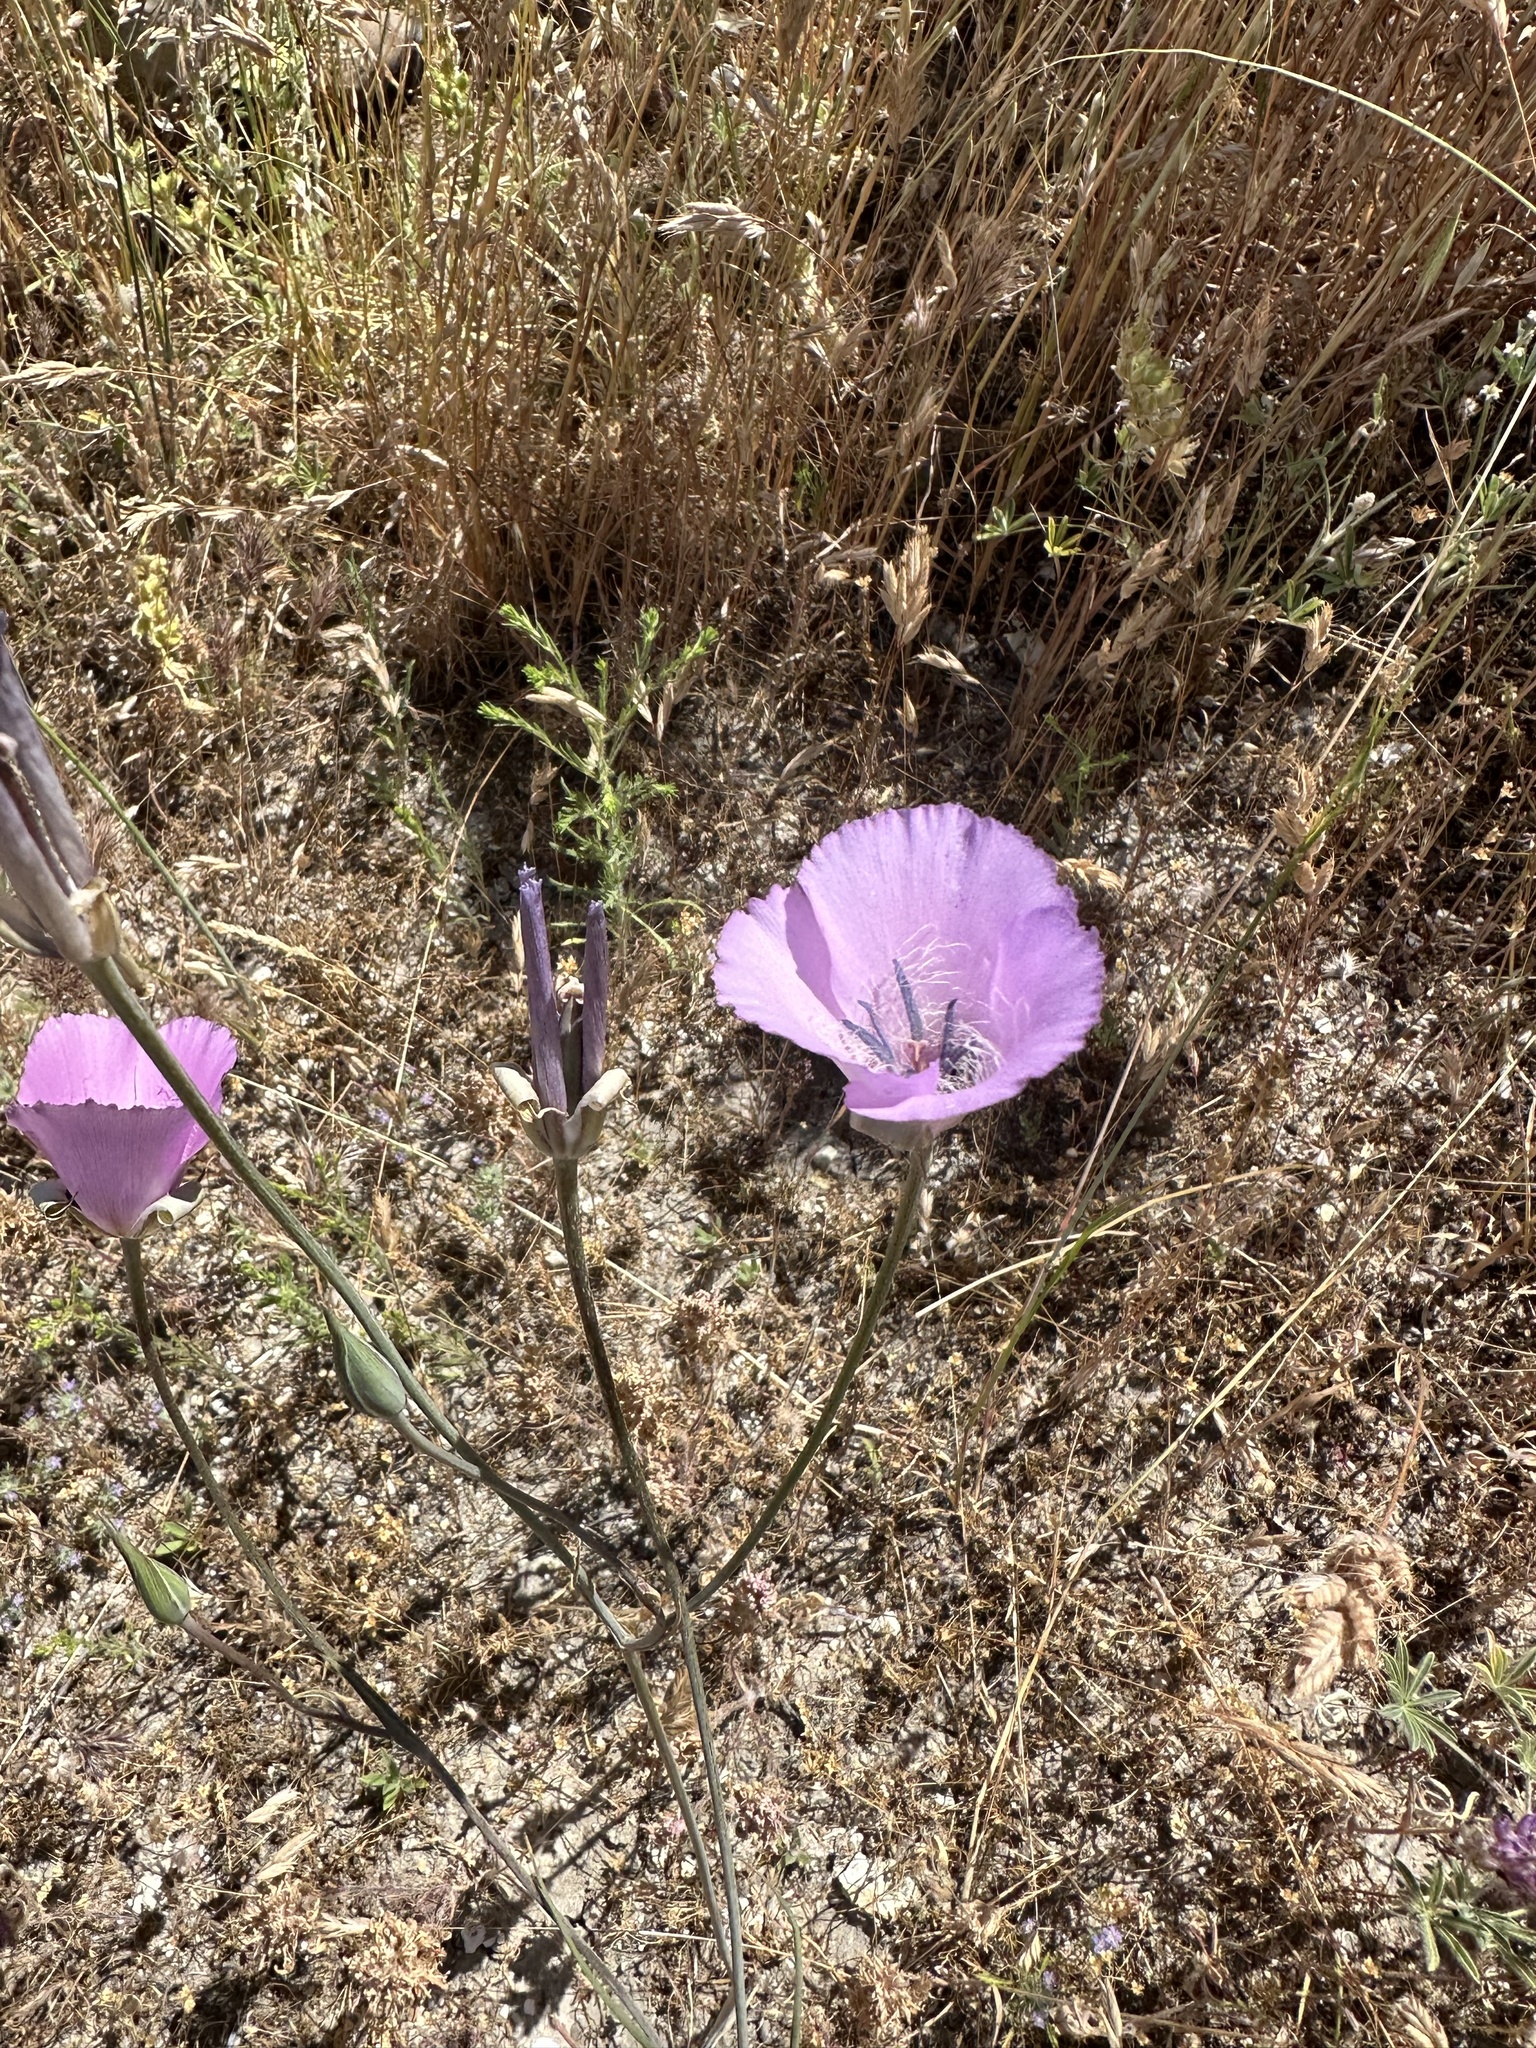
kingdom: Plantae
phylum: Tracheophyta
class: Liliopsida
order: Liliales
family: Liliaceae
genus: Calochortus
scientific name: Calochortus splendens
